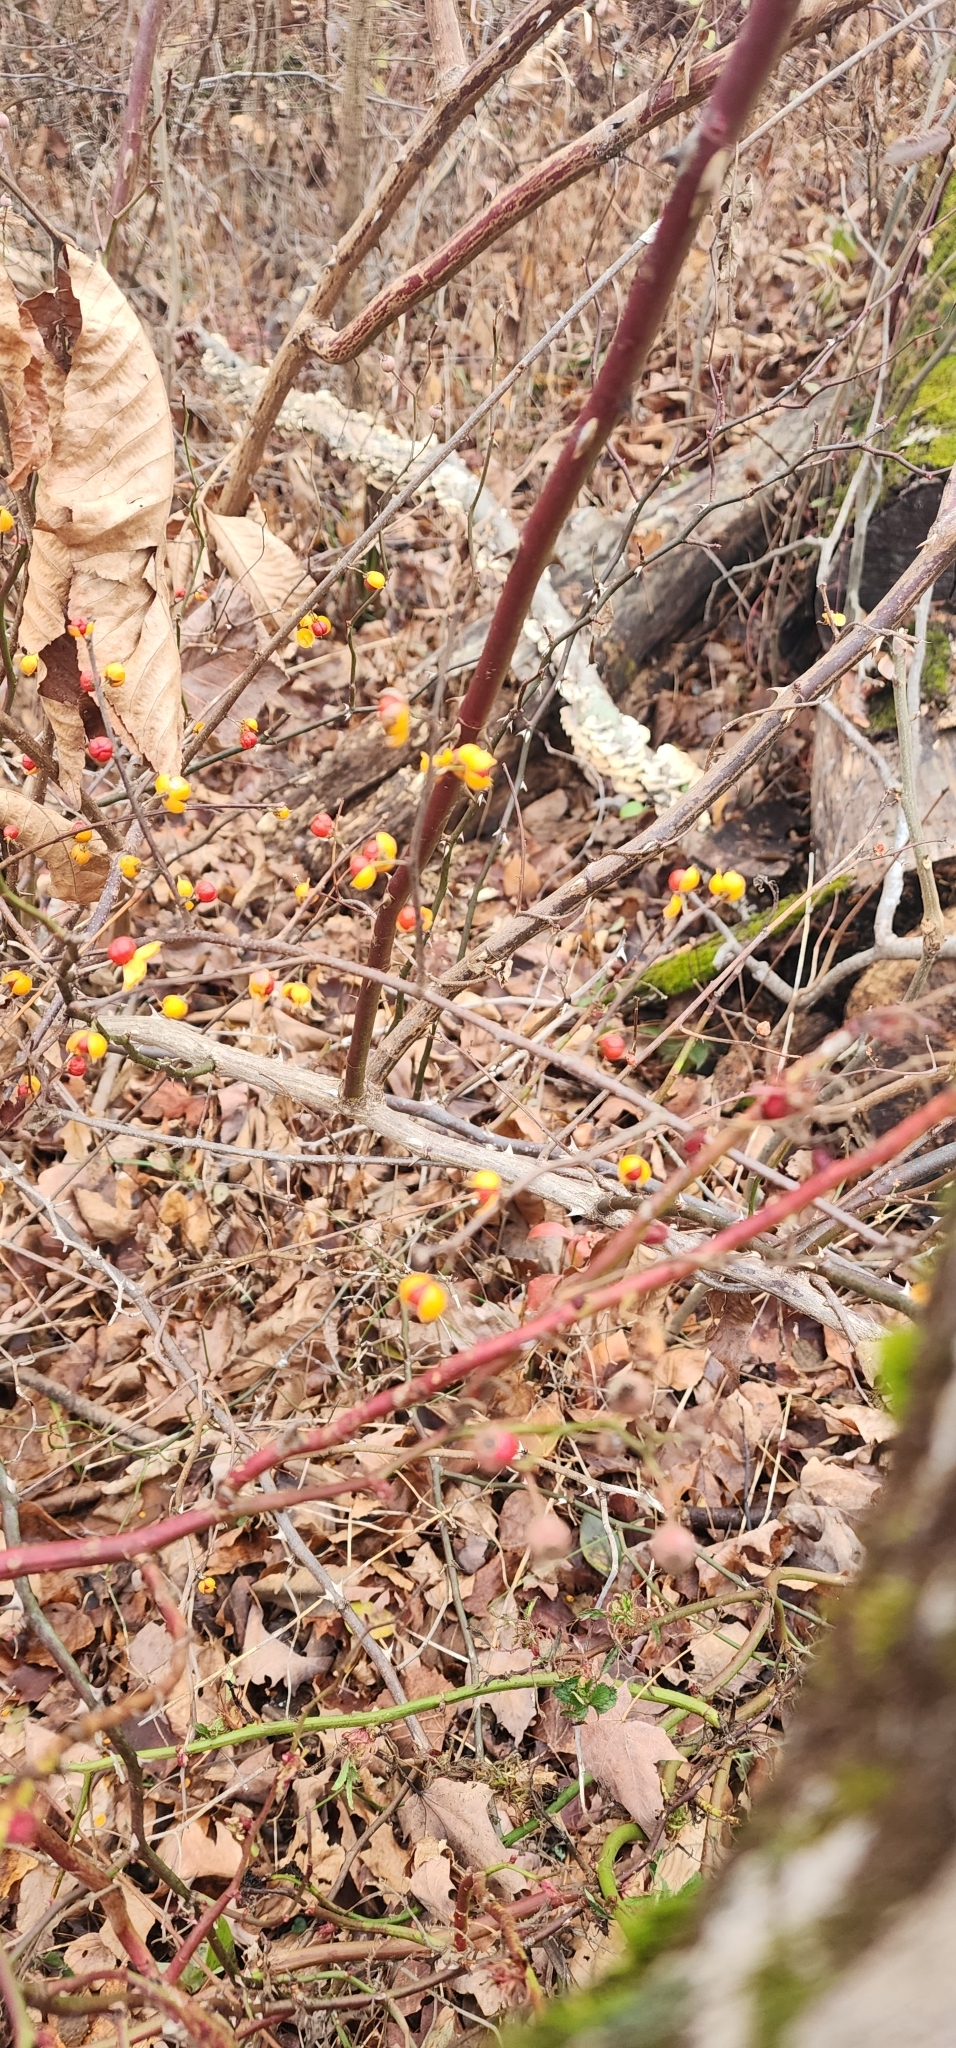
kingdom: Plantae
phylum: Tracheophyta
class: Magnoliopsida
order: Celastrales
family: Celastraceae
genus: Celastrus
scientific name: Celastrus orbiculatus
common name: Oriental bittersweet
